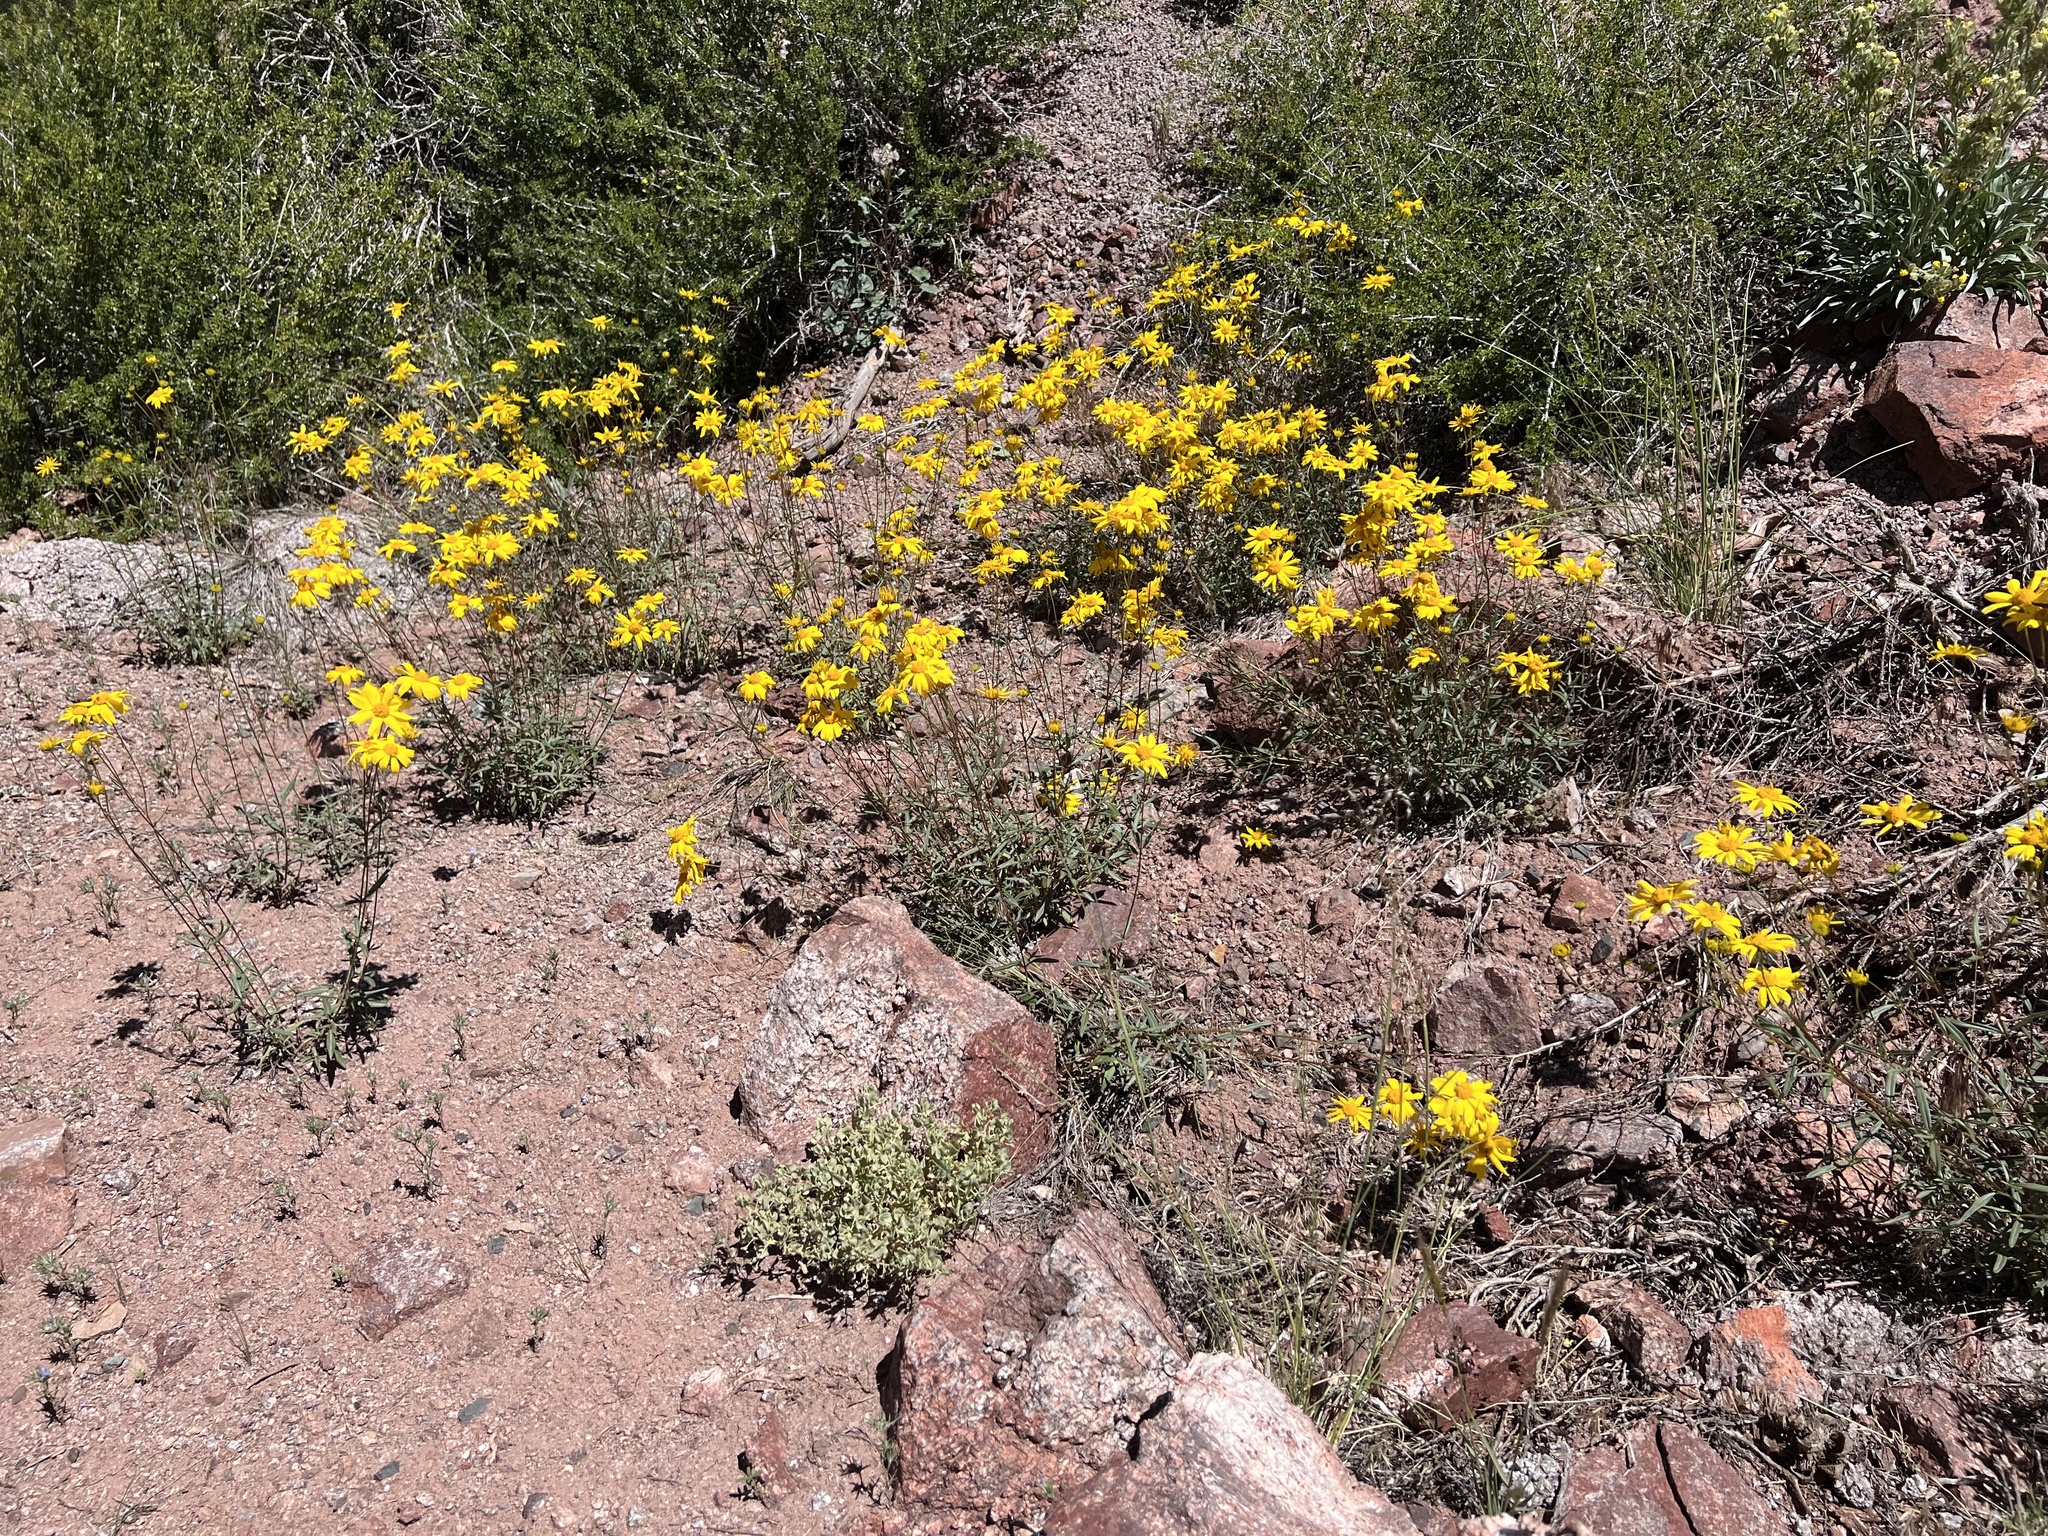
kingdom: Plantae
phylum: Tracheophyta
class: Magnoliopsida
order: Asterales
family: Asteraceae
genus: Heliomeris
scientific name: Heliomeris multiflora
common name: Showy goldeneye
